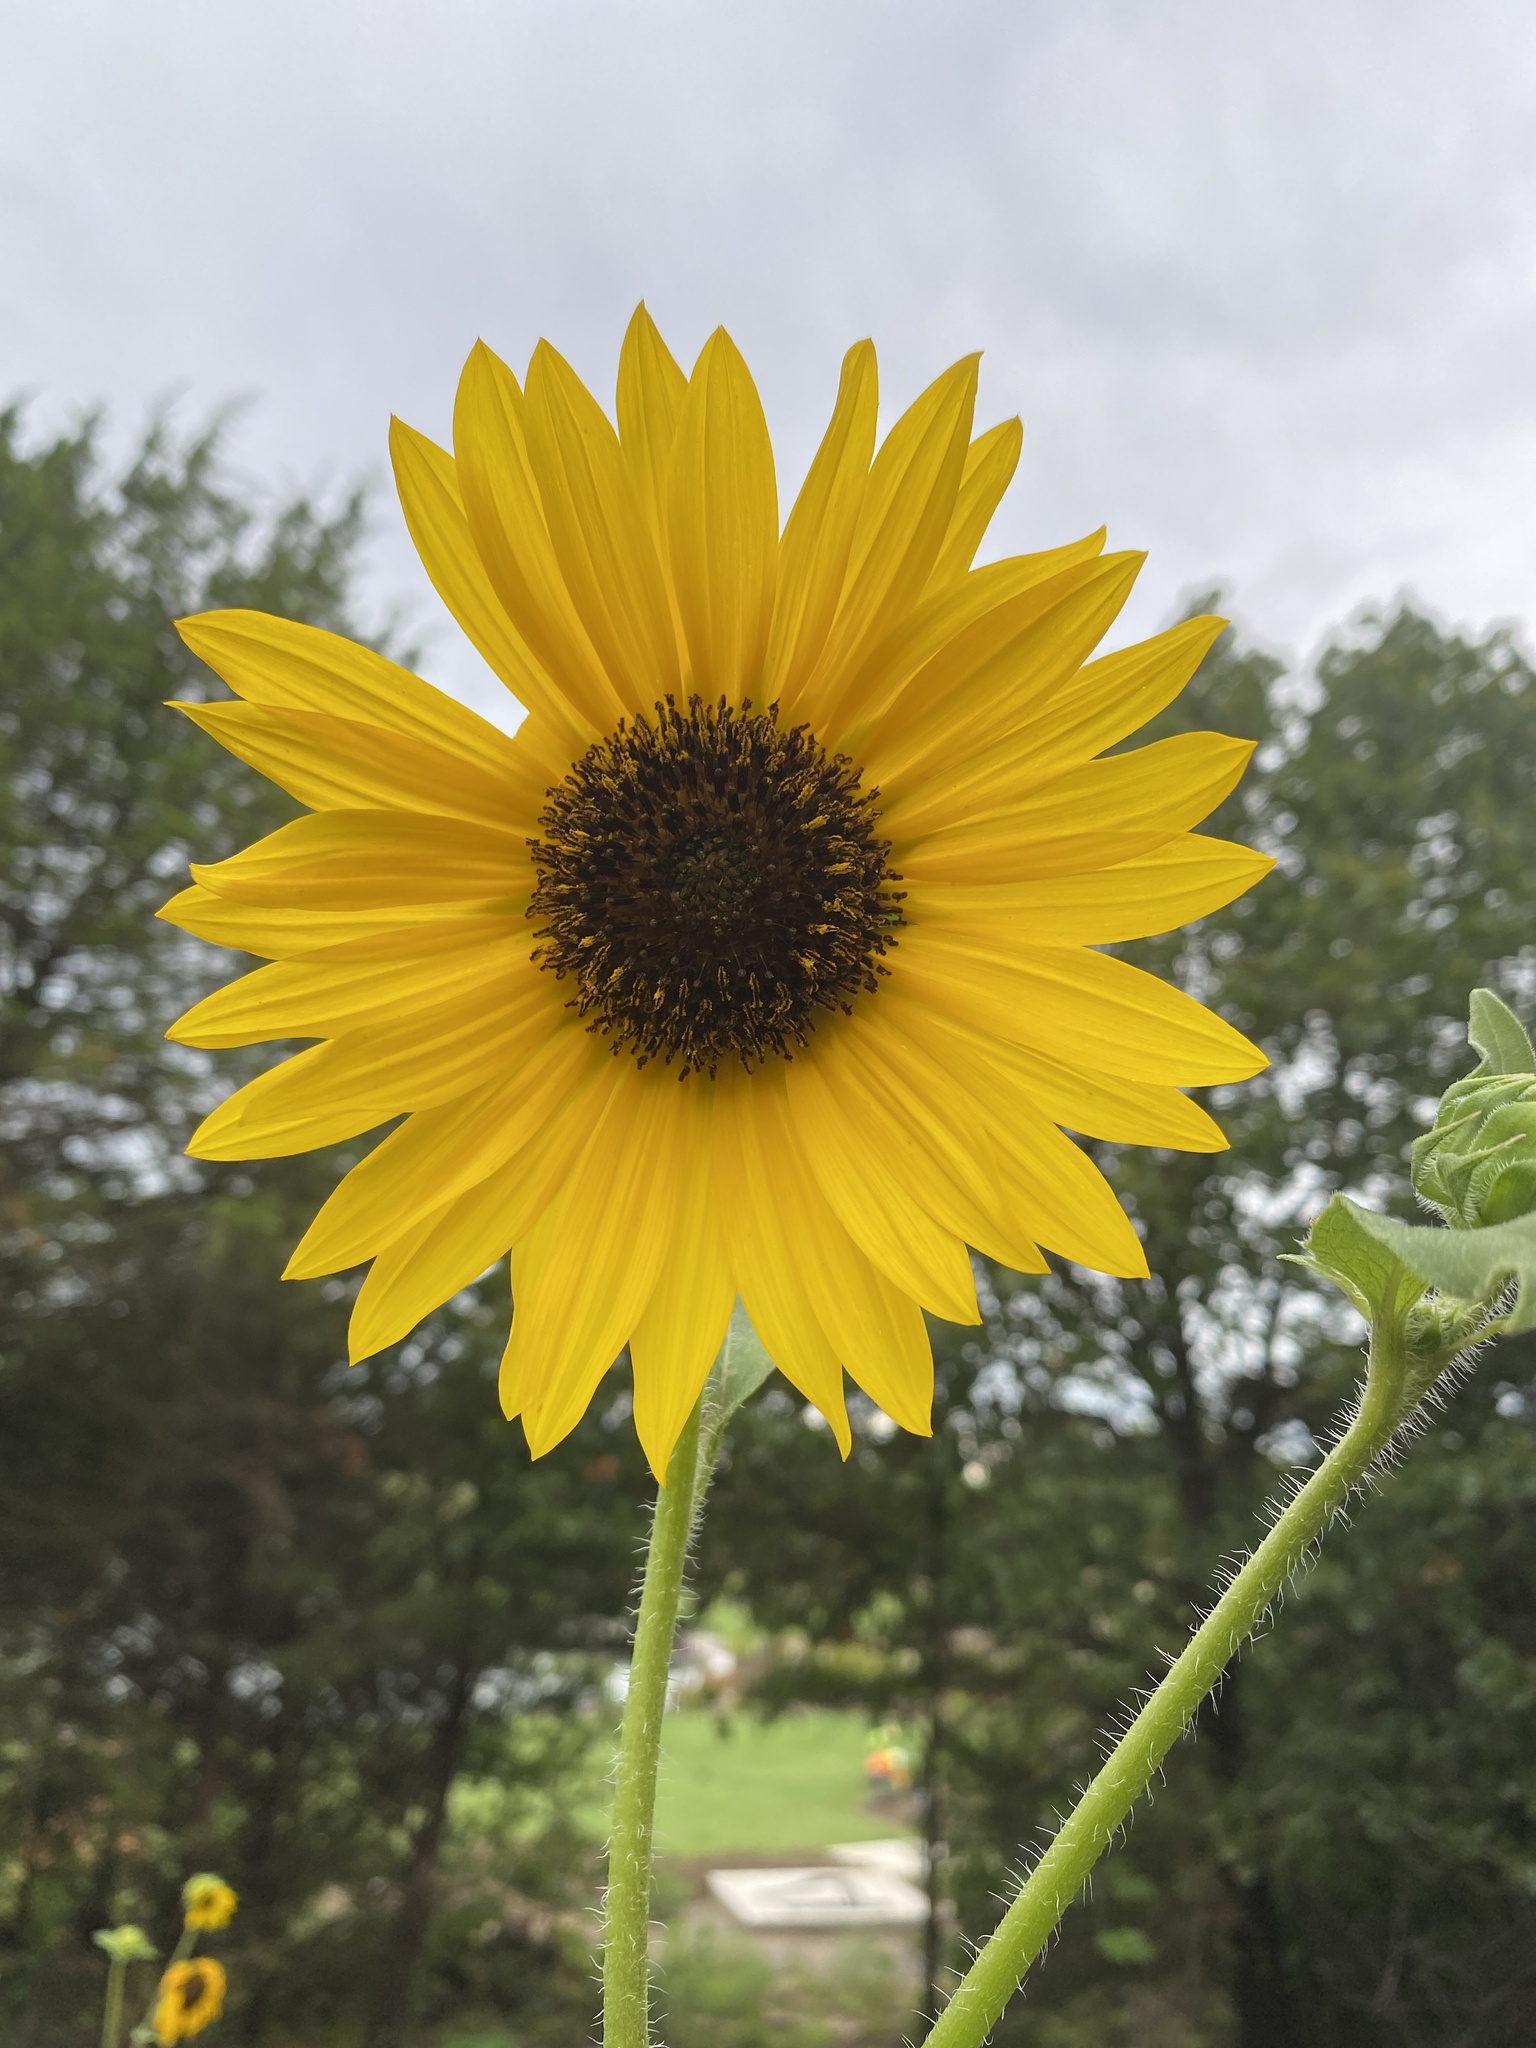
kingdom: Plantae
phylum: Tracheophyta
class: Magnoliopsida
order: Asterales
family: Asteraceae
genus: Helianthus
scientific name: Helianthus annuus
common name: Sunflower
